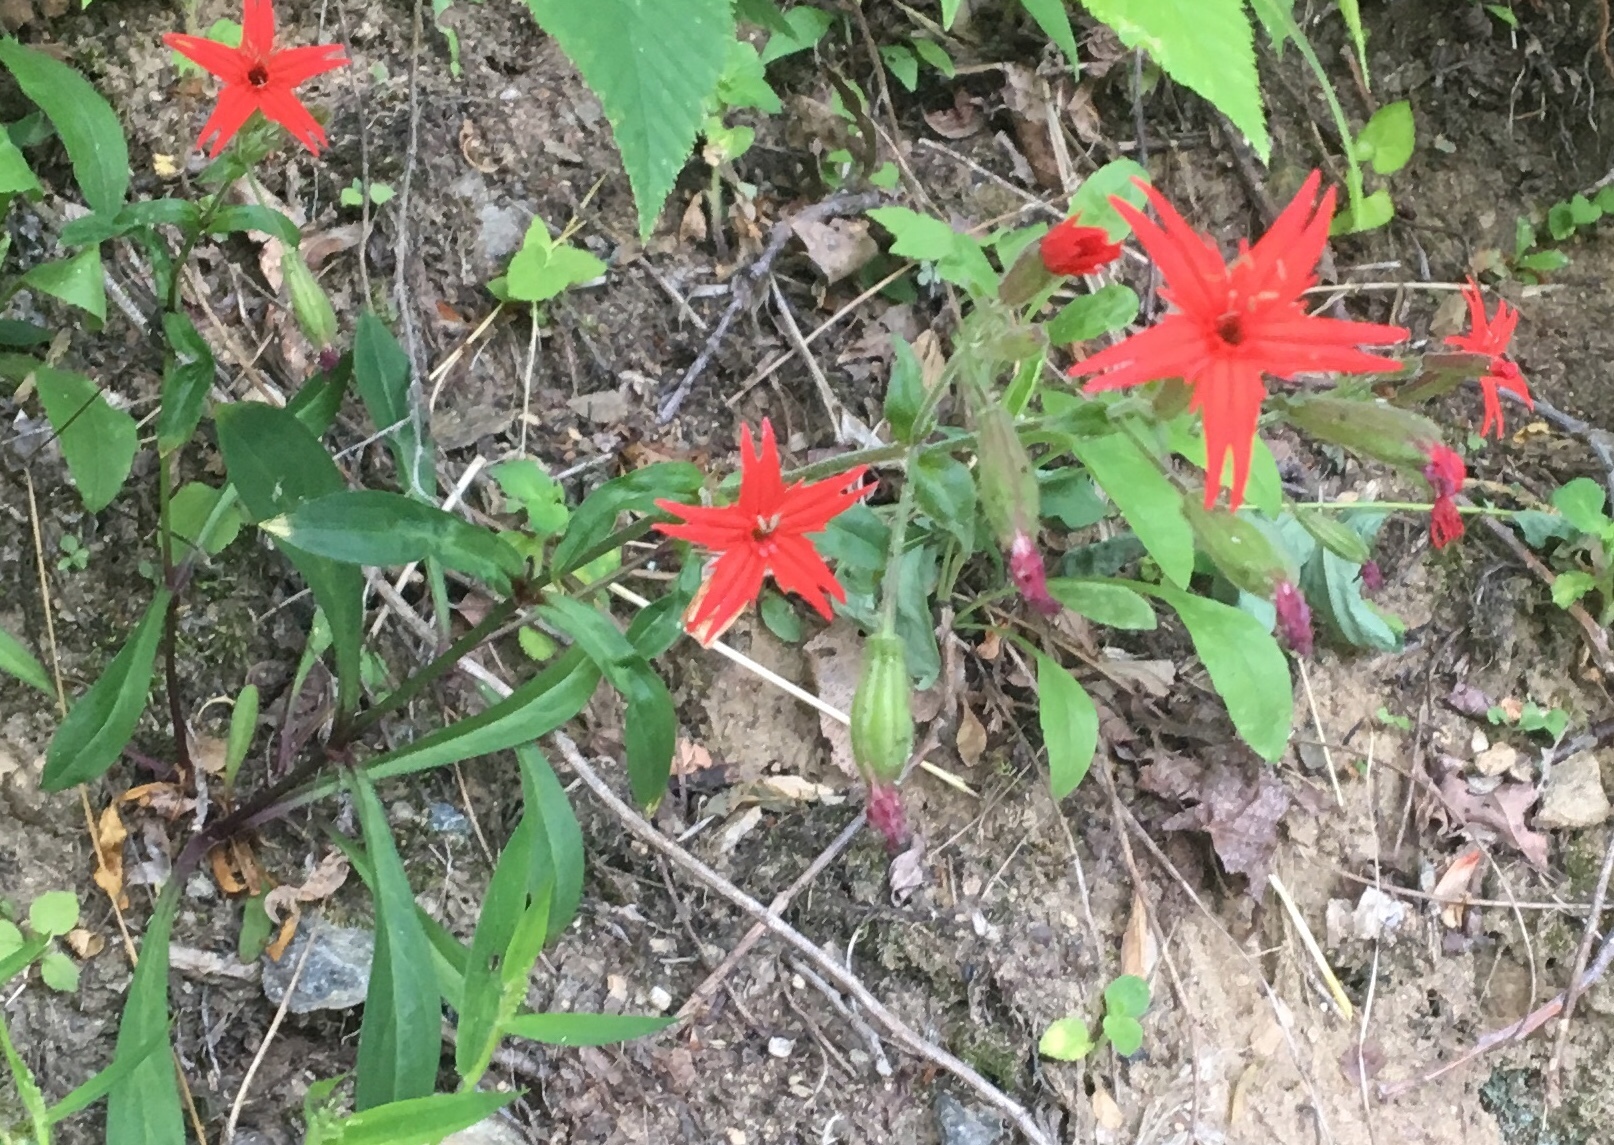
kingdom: Plantae
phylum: Tracheophyta
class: Magnoliopsida
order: Caryophyllales
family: Caryophyllaceae
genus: Silene
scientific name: Silene virginica
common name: Fire-pink
